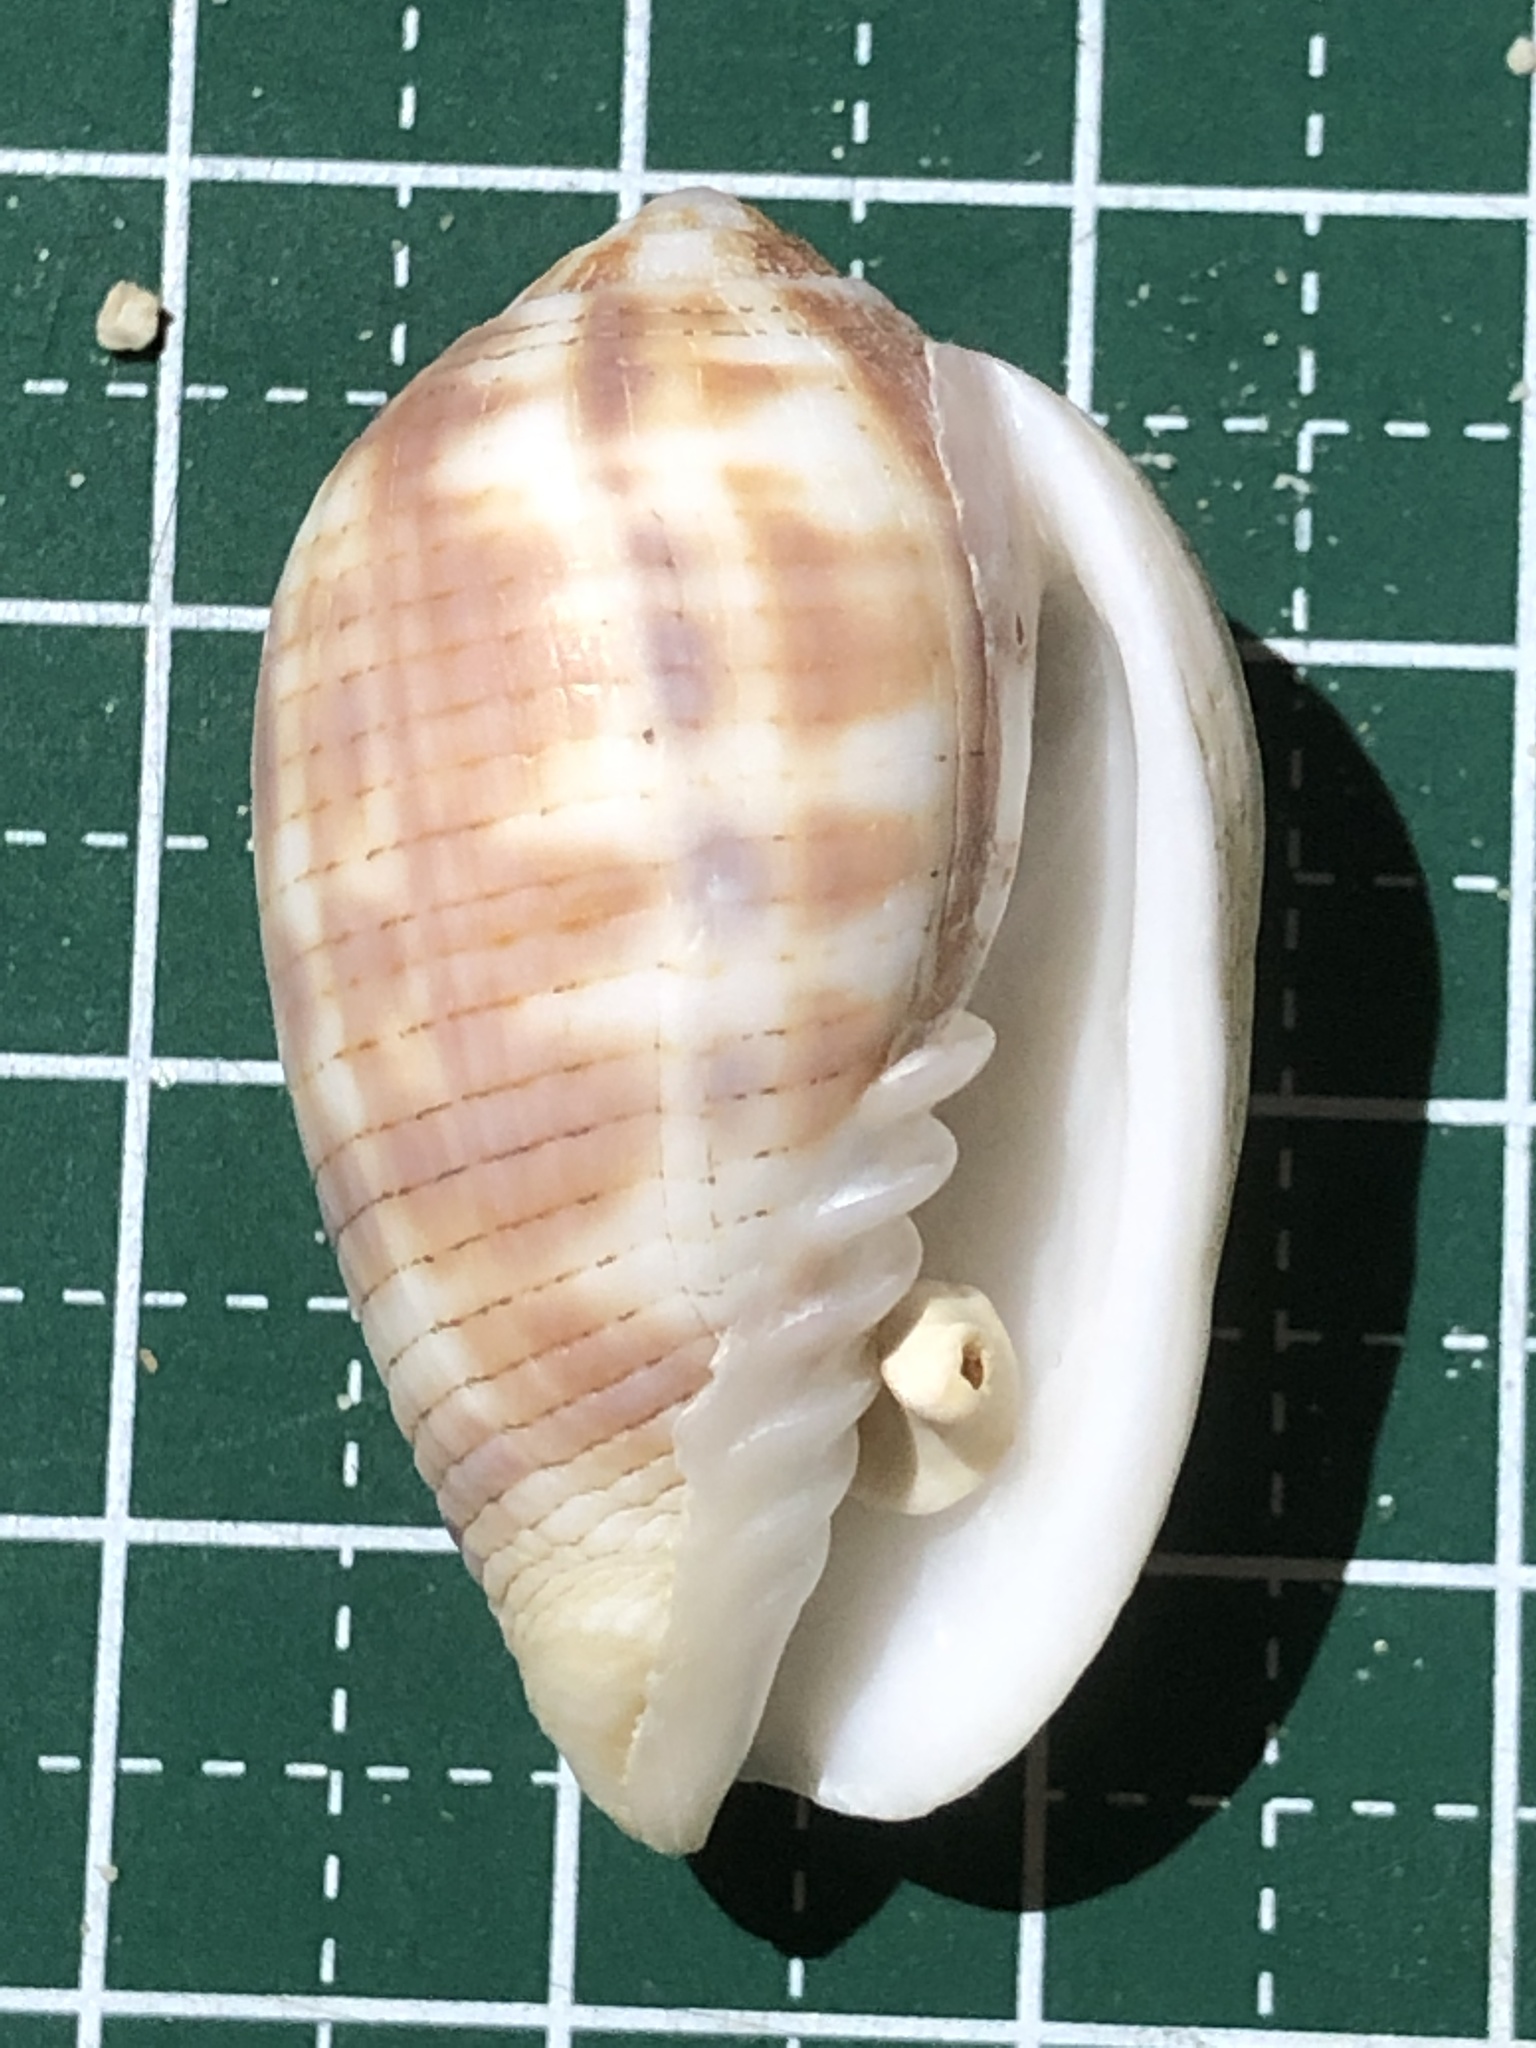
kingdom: Animalia
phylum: Mollusca
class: Gastropoda
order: Neogastropoda
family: Mitridae
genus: Pterygia
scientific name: Pterygia dactylus
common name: Finger miter
